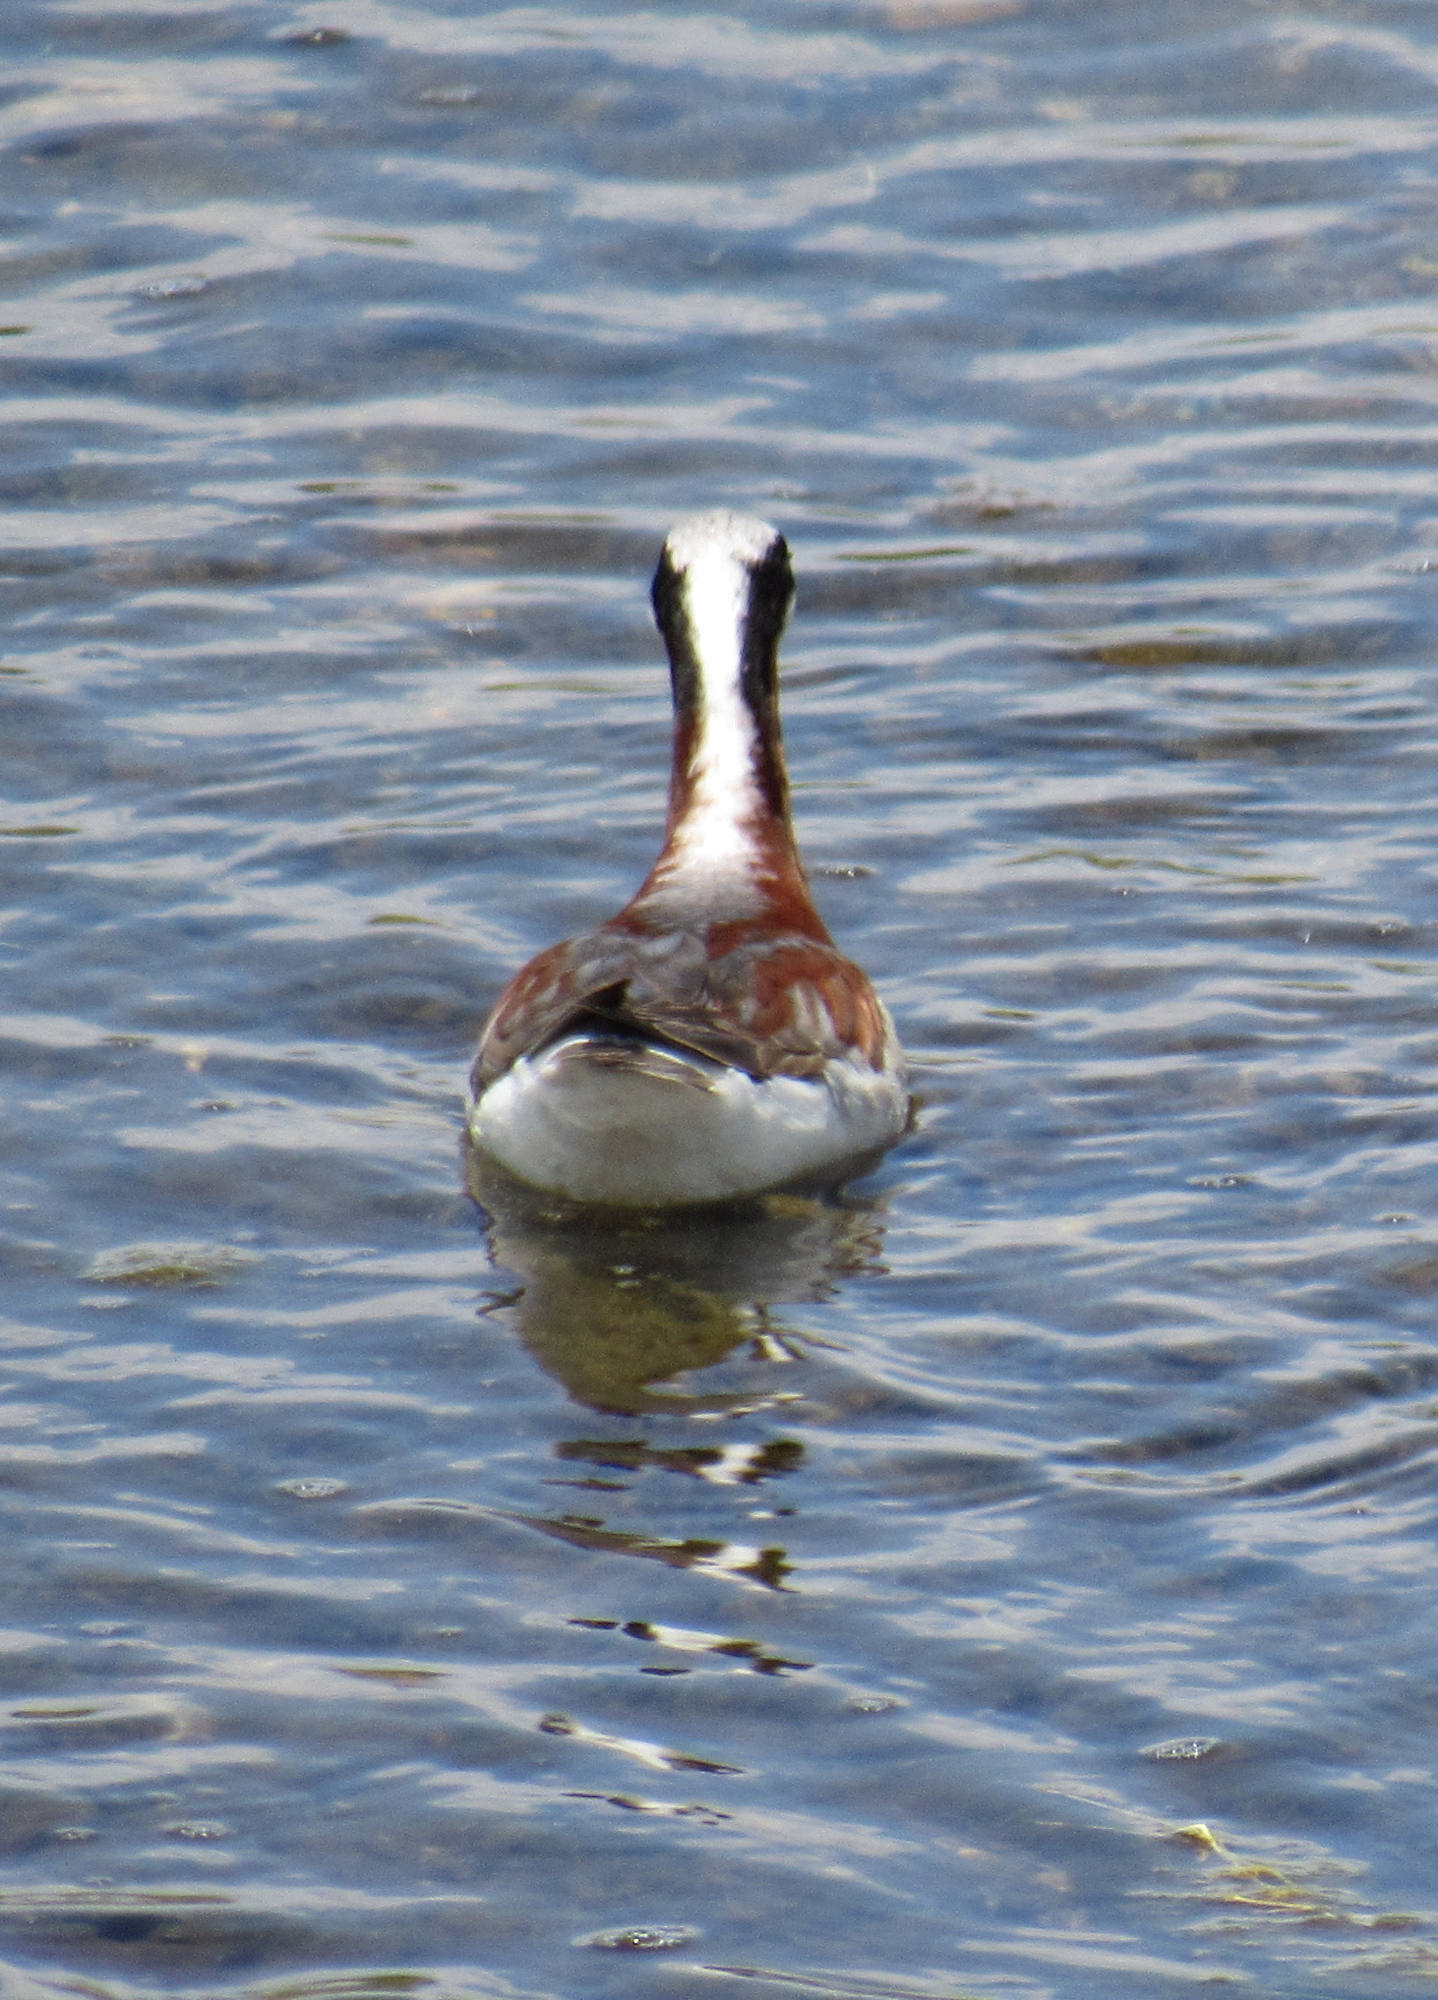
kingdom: Animalia
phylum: Chordata
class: Aves
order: Charadriiformes
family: Scolopacidae
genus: Phalaropus
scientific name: Phalaropus tricolor
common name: Wilson's phalarope
